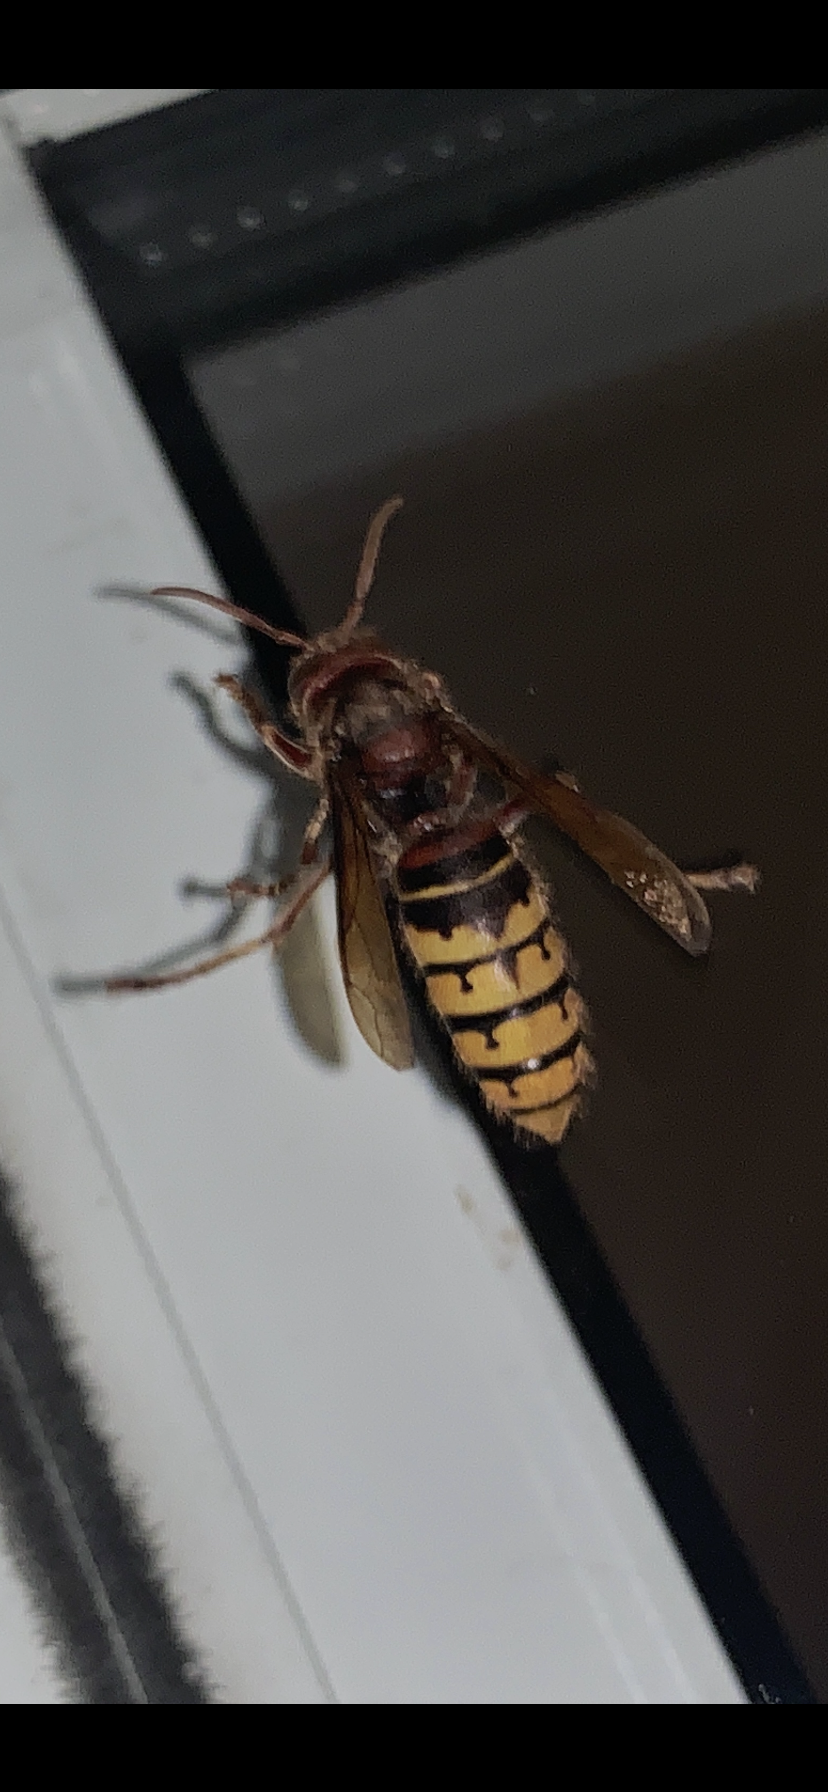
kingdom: Animalia
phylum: Arthropoda
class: Insecta
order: Hymenoptera
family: Vespidae
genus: Vespa
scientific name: Vespa crabro
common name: Hornet
